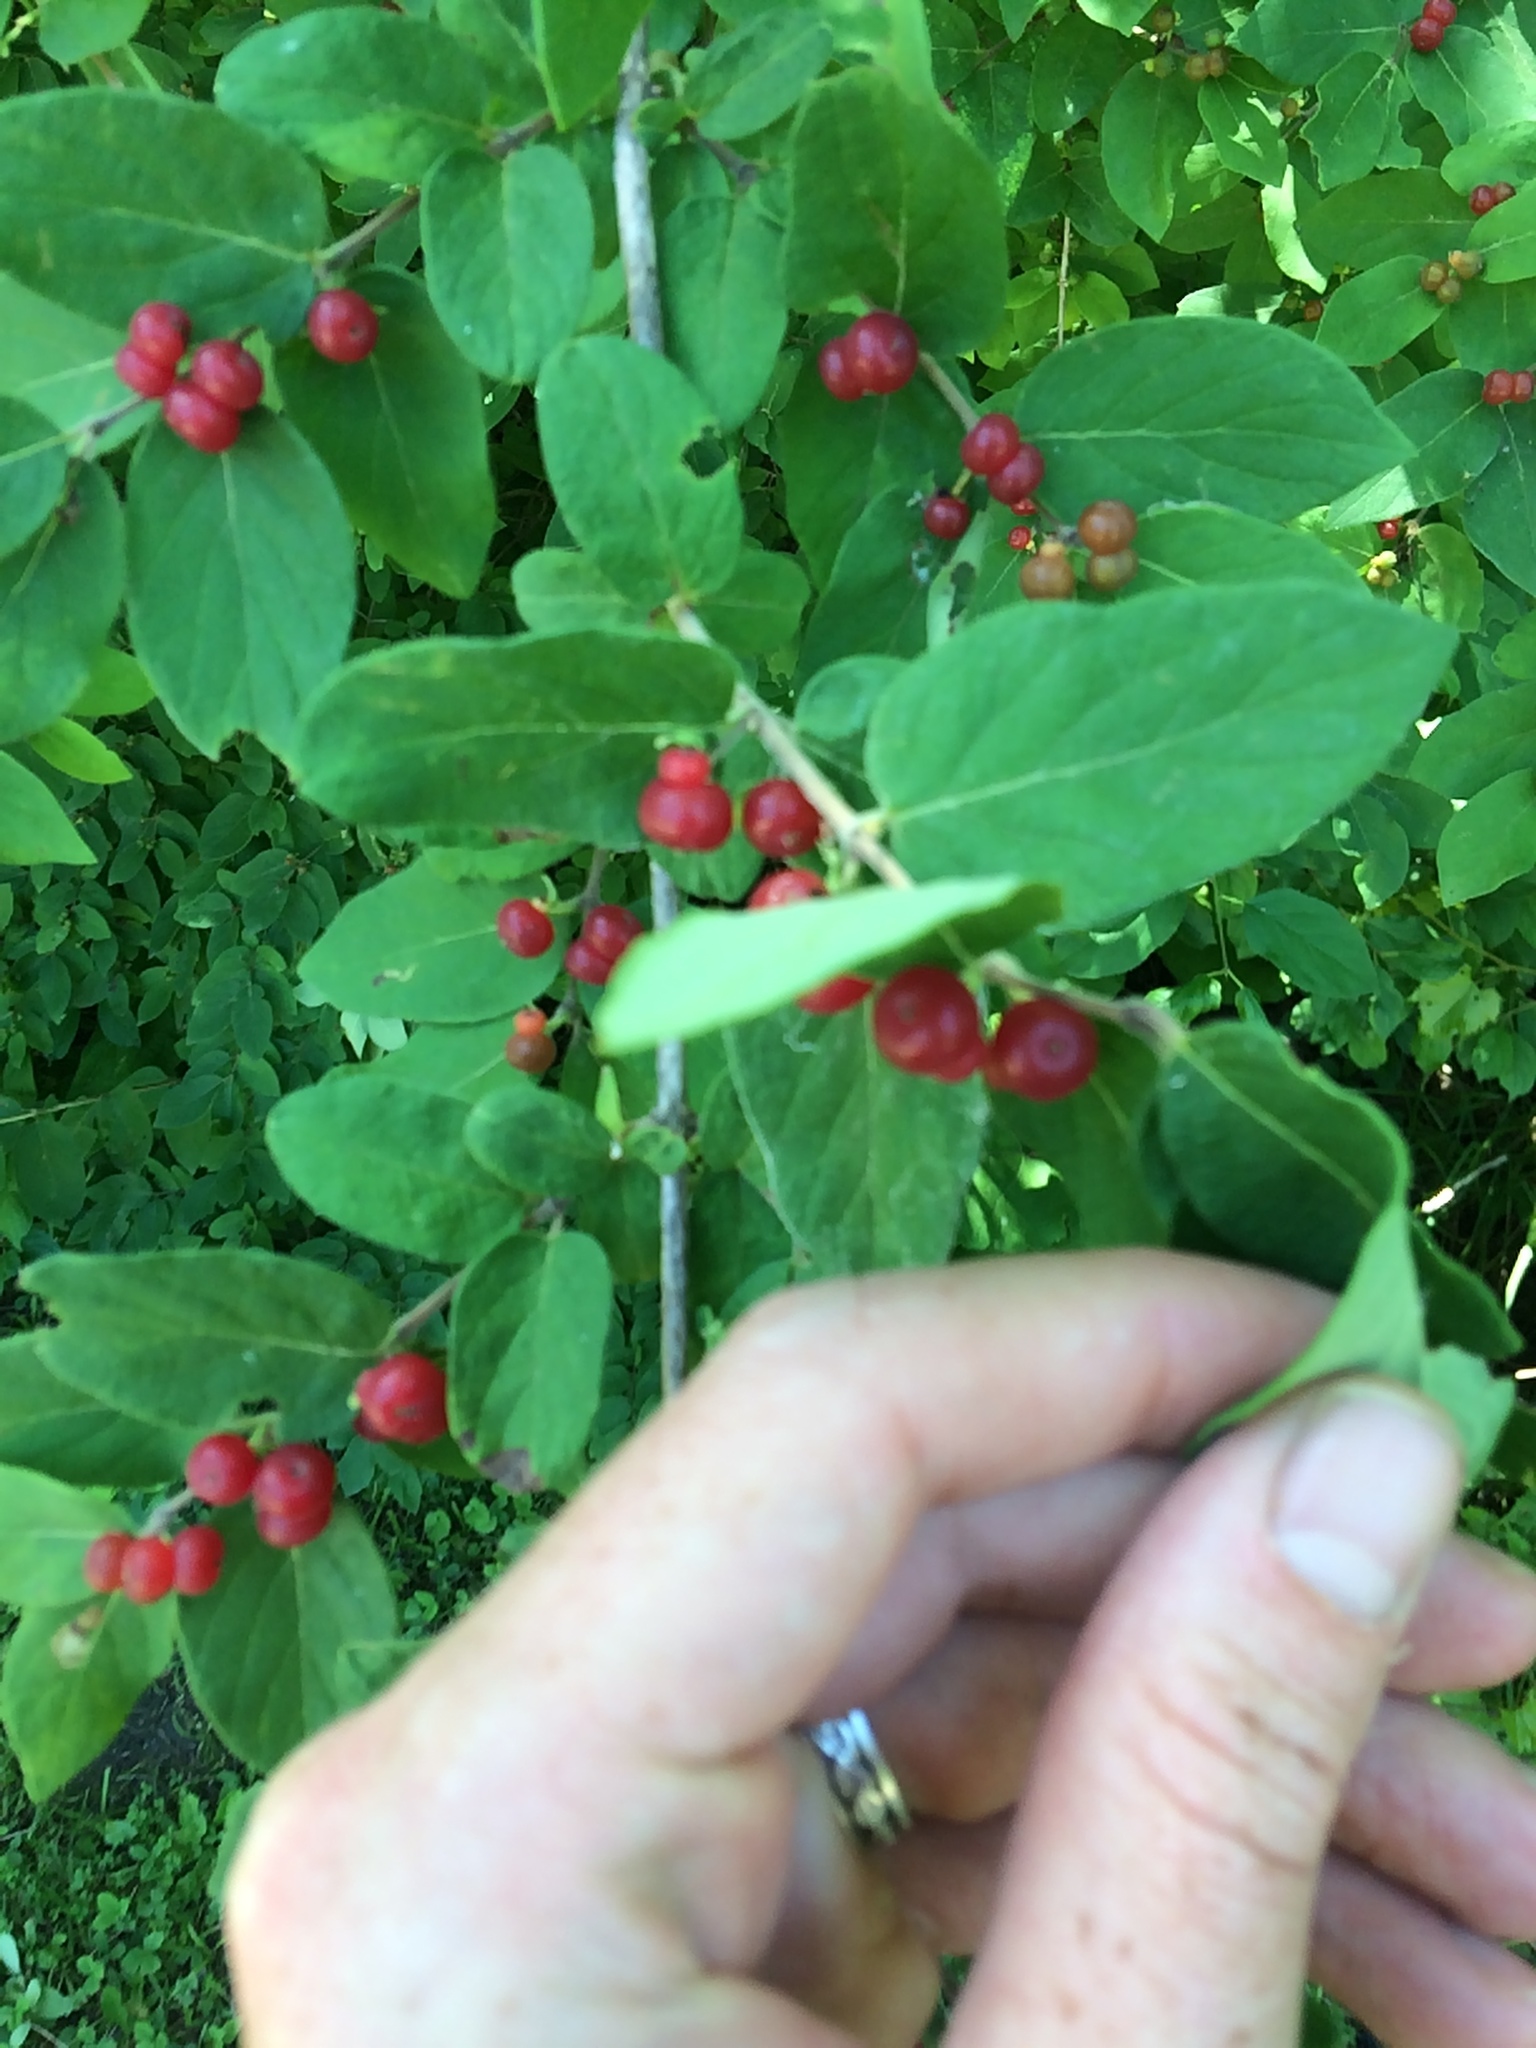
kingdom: Plantae
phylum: Tracheophyta
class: Magnoliopsida
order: Dipsacales
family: Caprifoliaceae
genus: Lonicera
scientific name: Lonicera morrowii
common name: Morrow's honeysuckle
